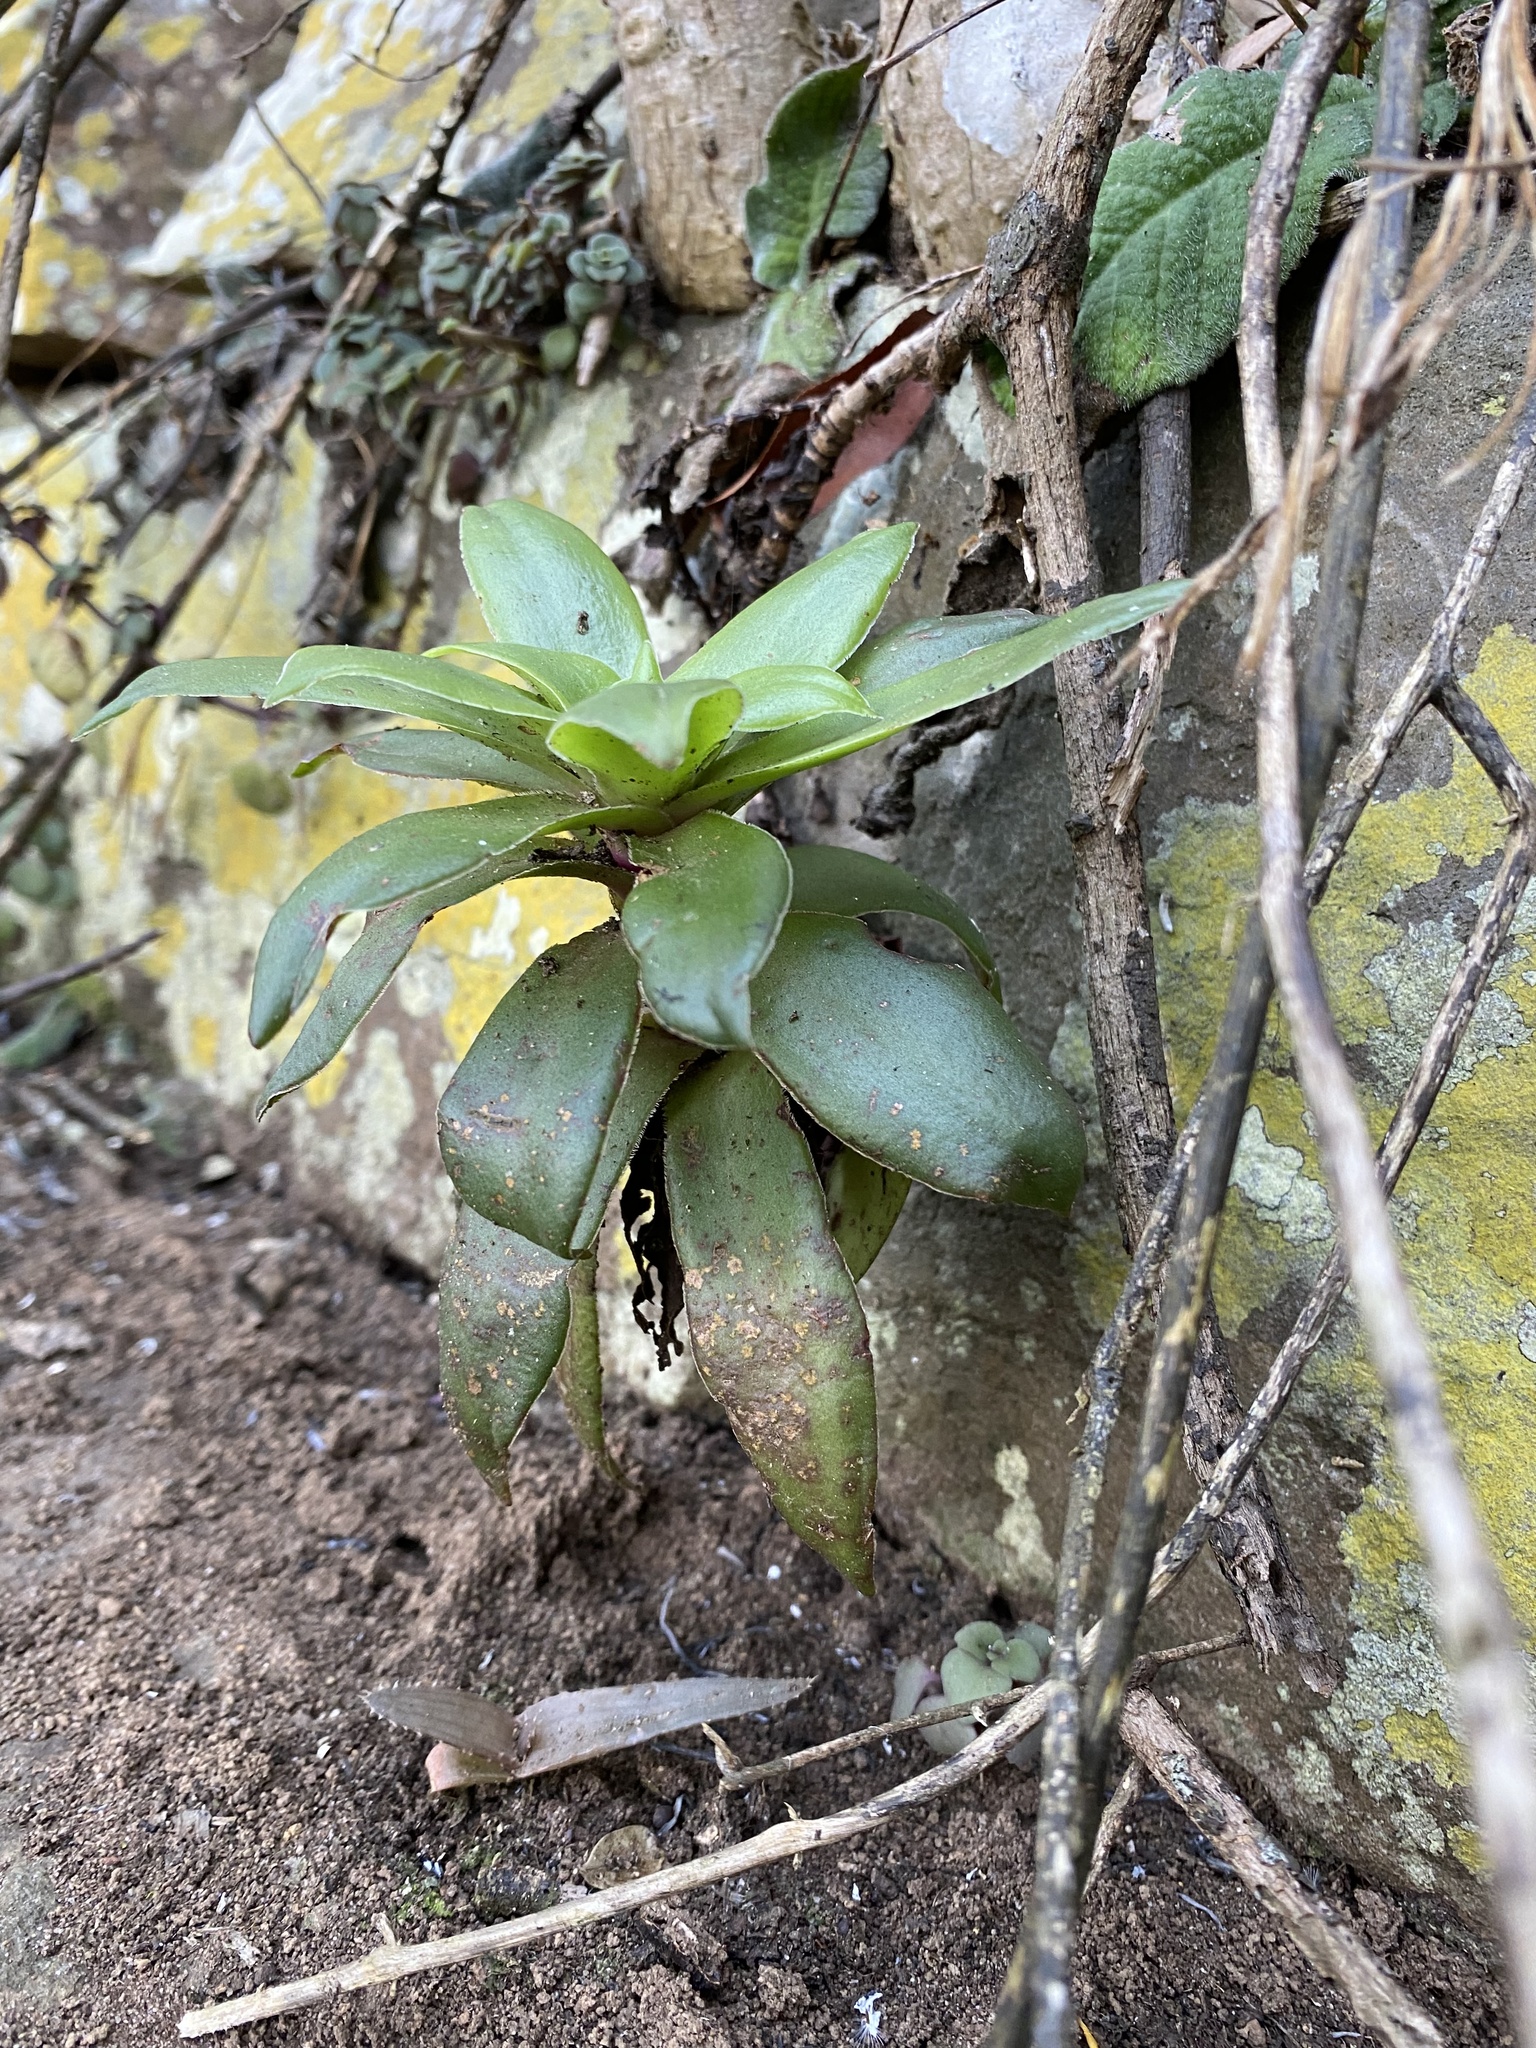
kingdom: Plantae
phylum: Tracheophyta
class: Magnoliopsida
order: Saxifragales
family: Crassulaceae
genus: Crassula
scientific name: Crassula orbicularis
